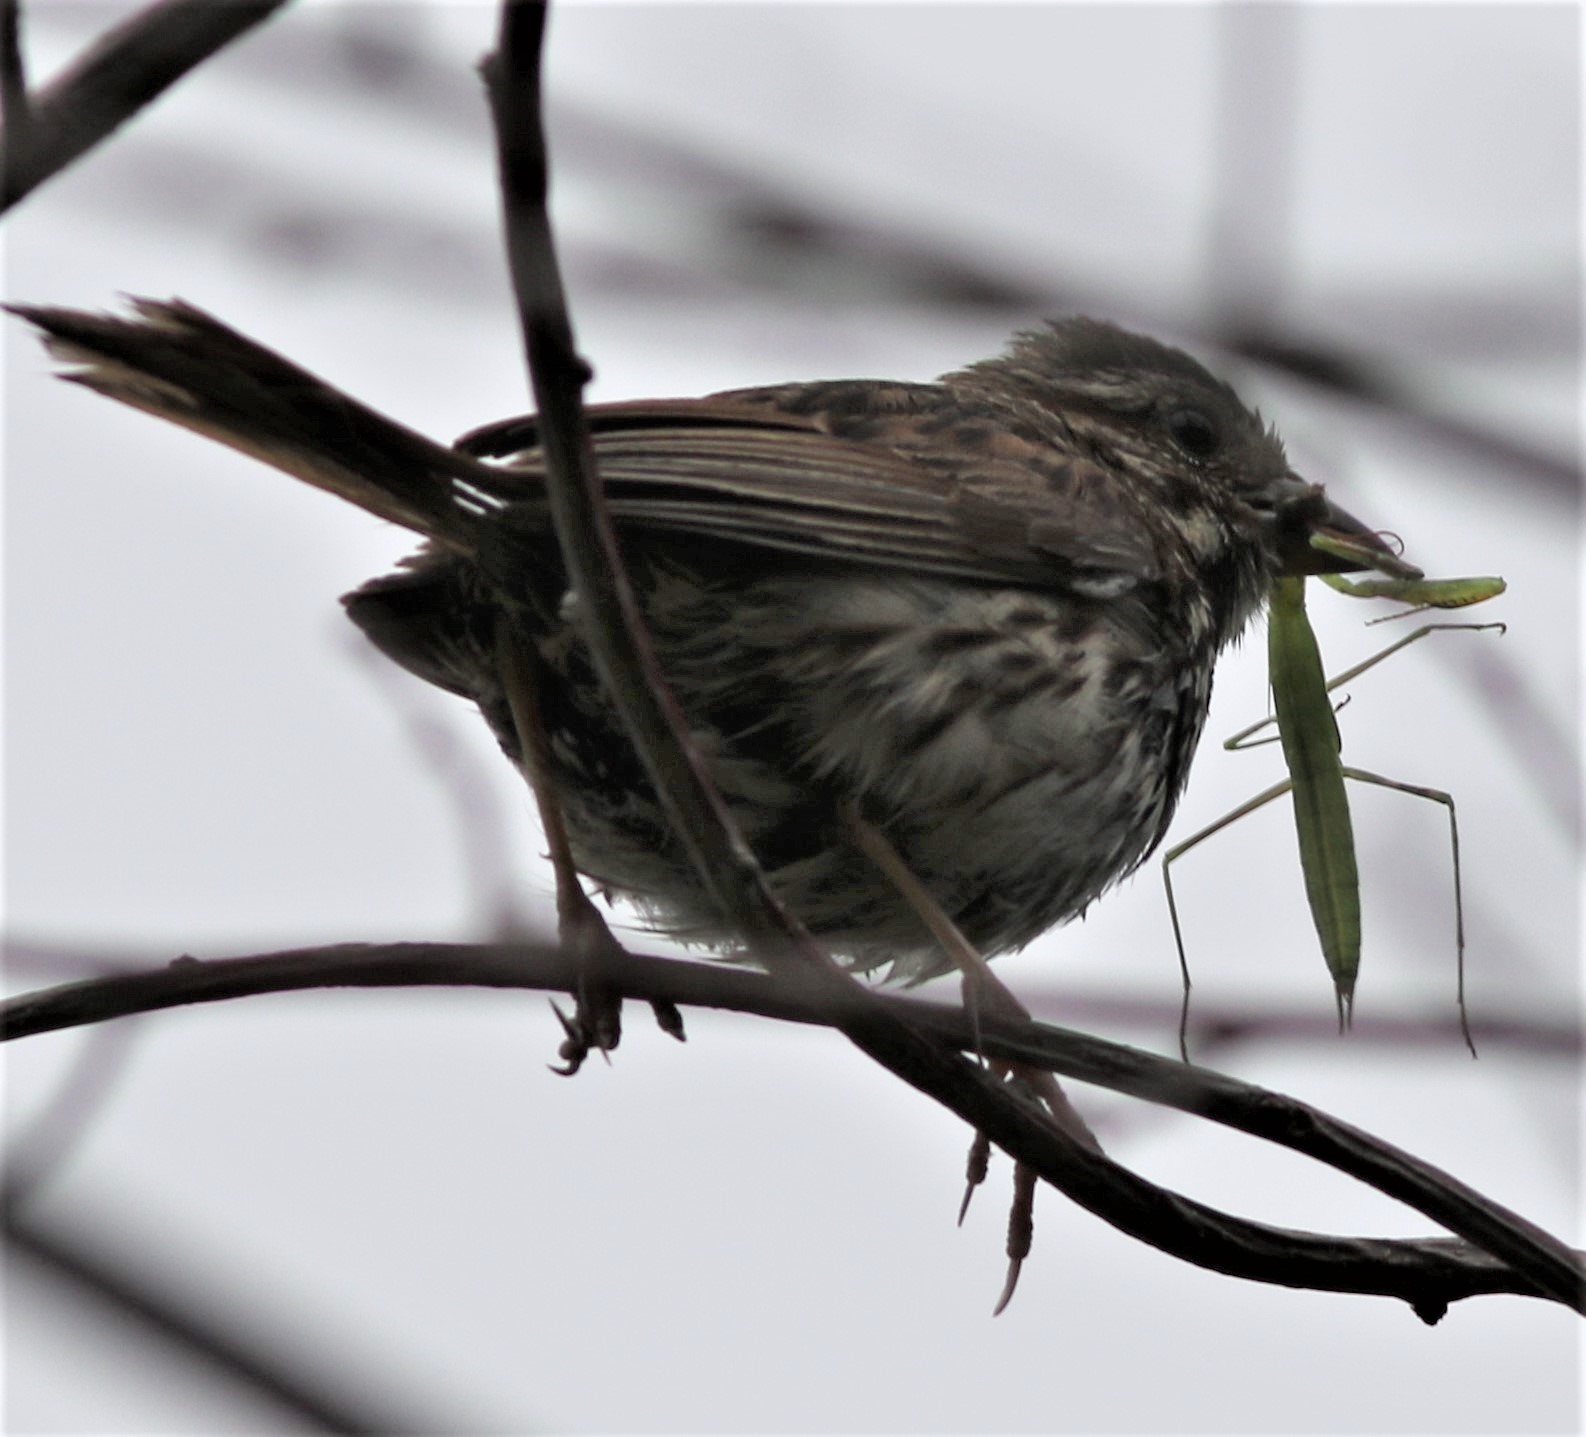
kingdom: Animalia
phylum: Arthropoda
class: Insecta
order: Mantodea
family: Mantidae
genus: Mantis
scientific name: Mantis religiosa
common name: Praying mantis
